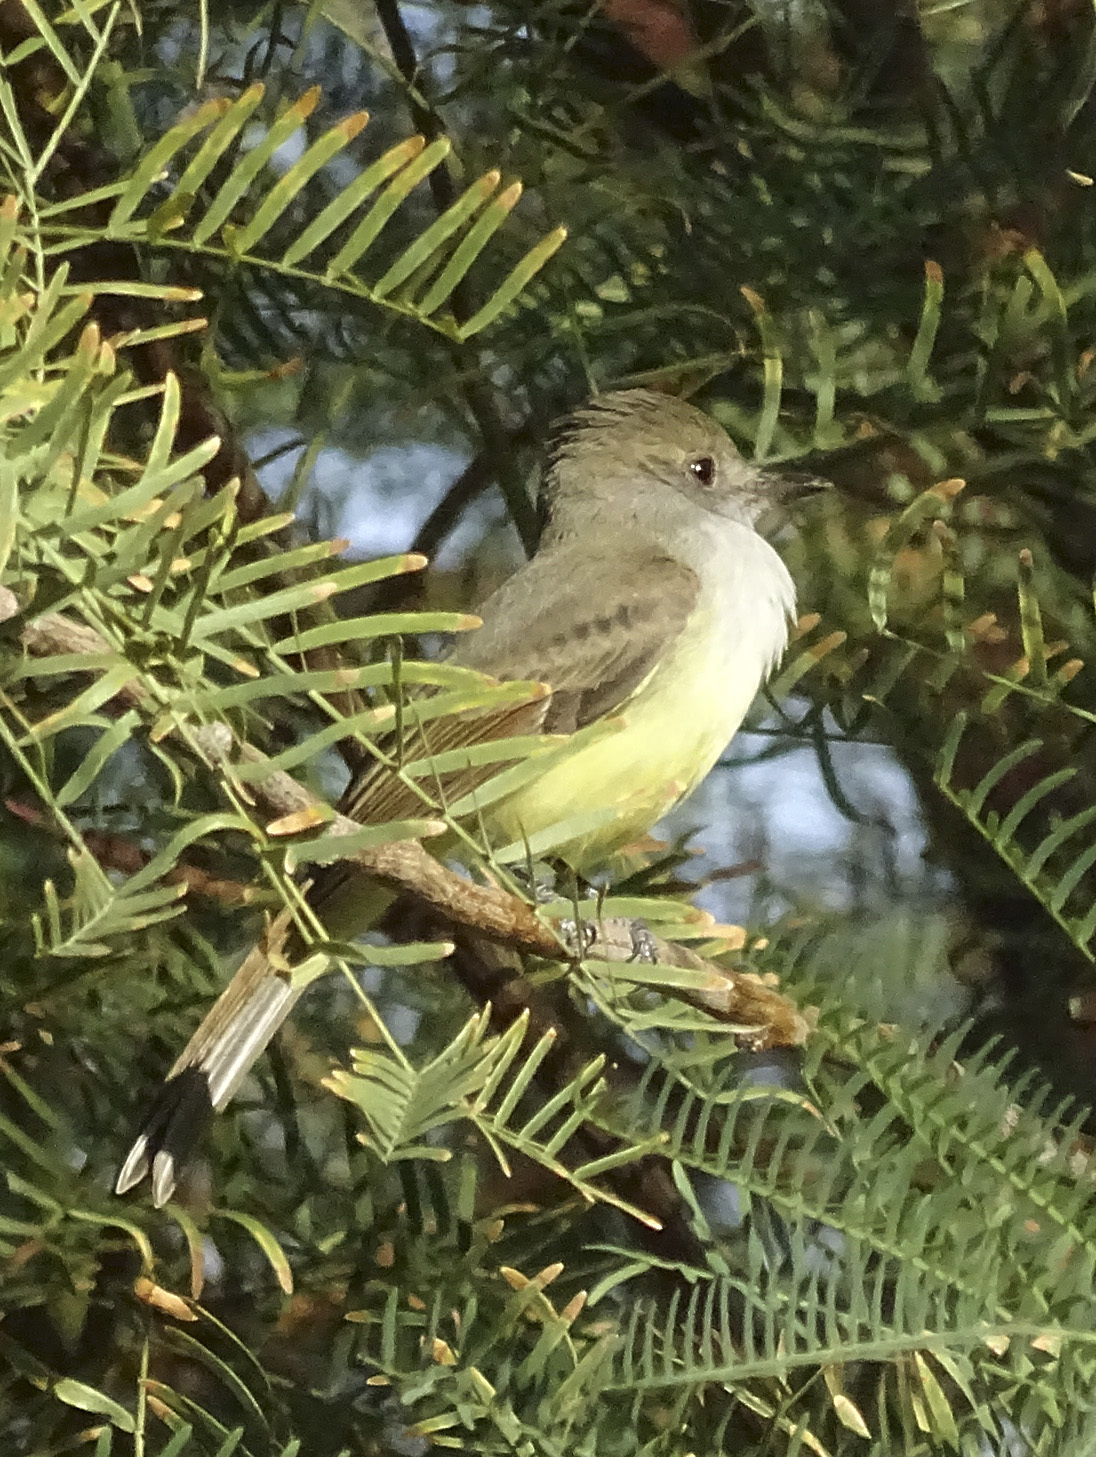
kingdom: Animalia
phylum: Chordata
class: Aves
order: Passeriformes
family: Tyrannidae
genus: Myiarchus
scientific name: Myiarchus tuberculifer
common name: Dusky-capped flycatcher
